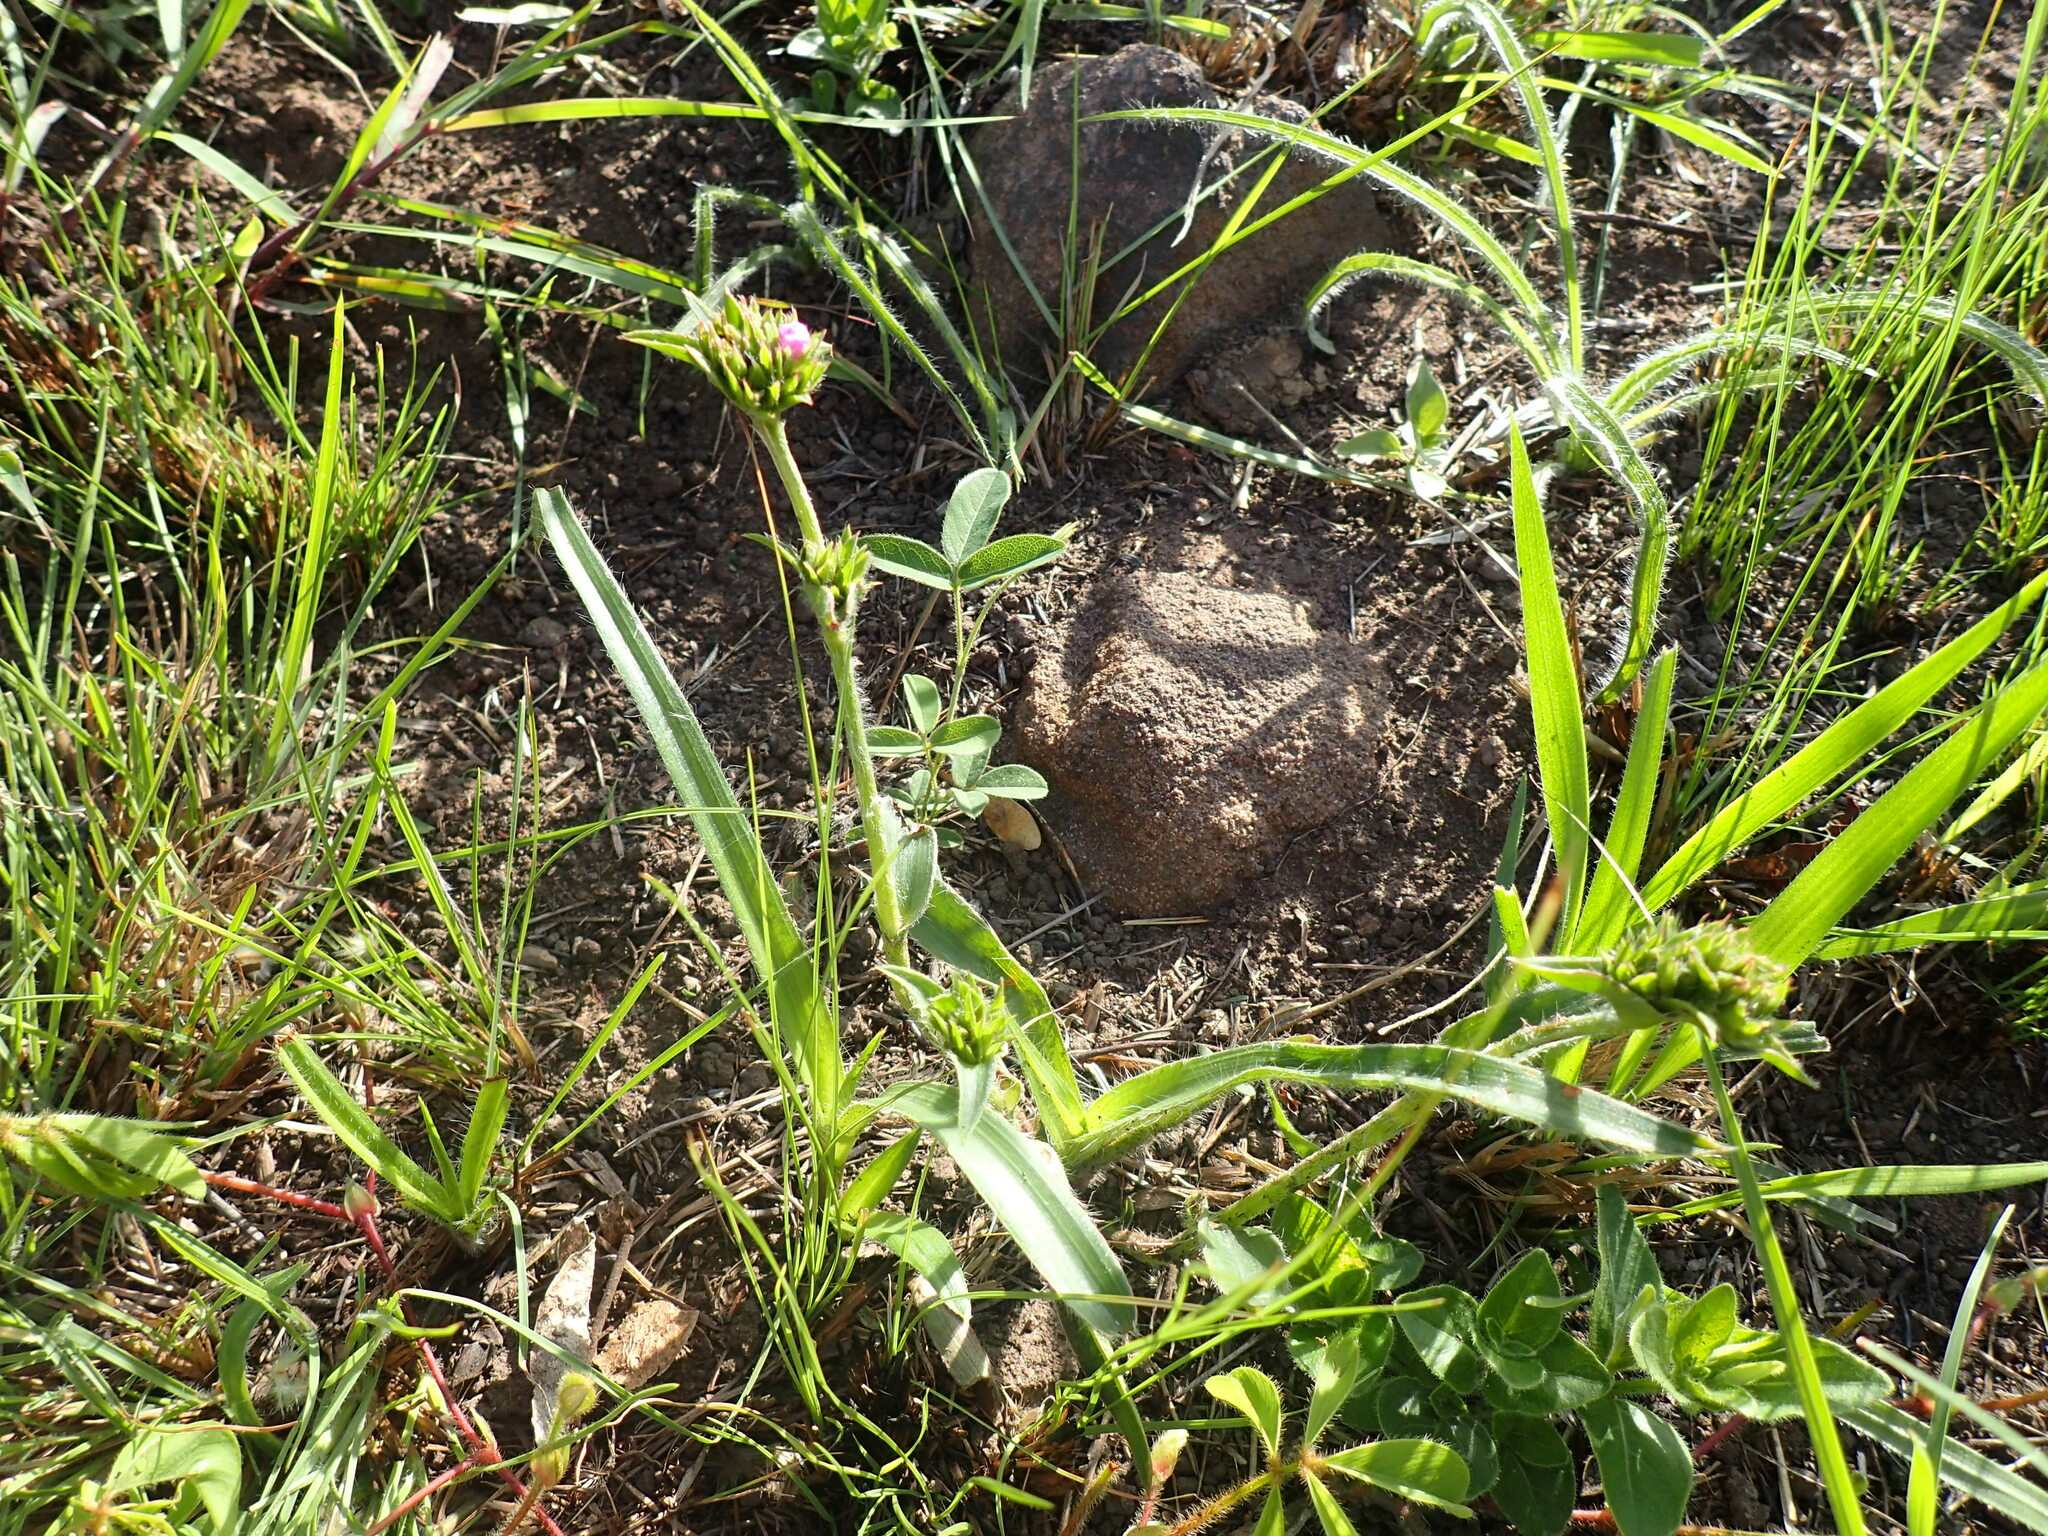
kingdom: Plantae
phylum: Tracheophyta
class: Liliopsida
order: Commelinales
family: Commelinaceae
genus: Cyanotis
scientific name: Cyanotis speciosa
